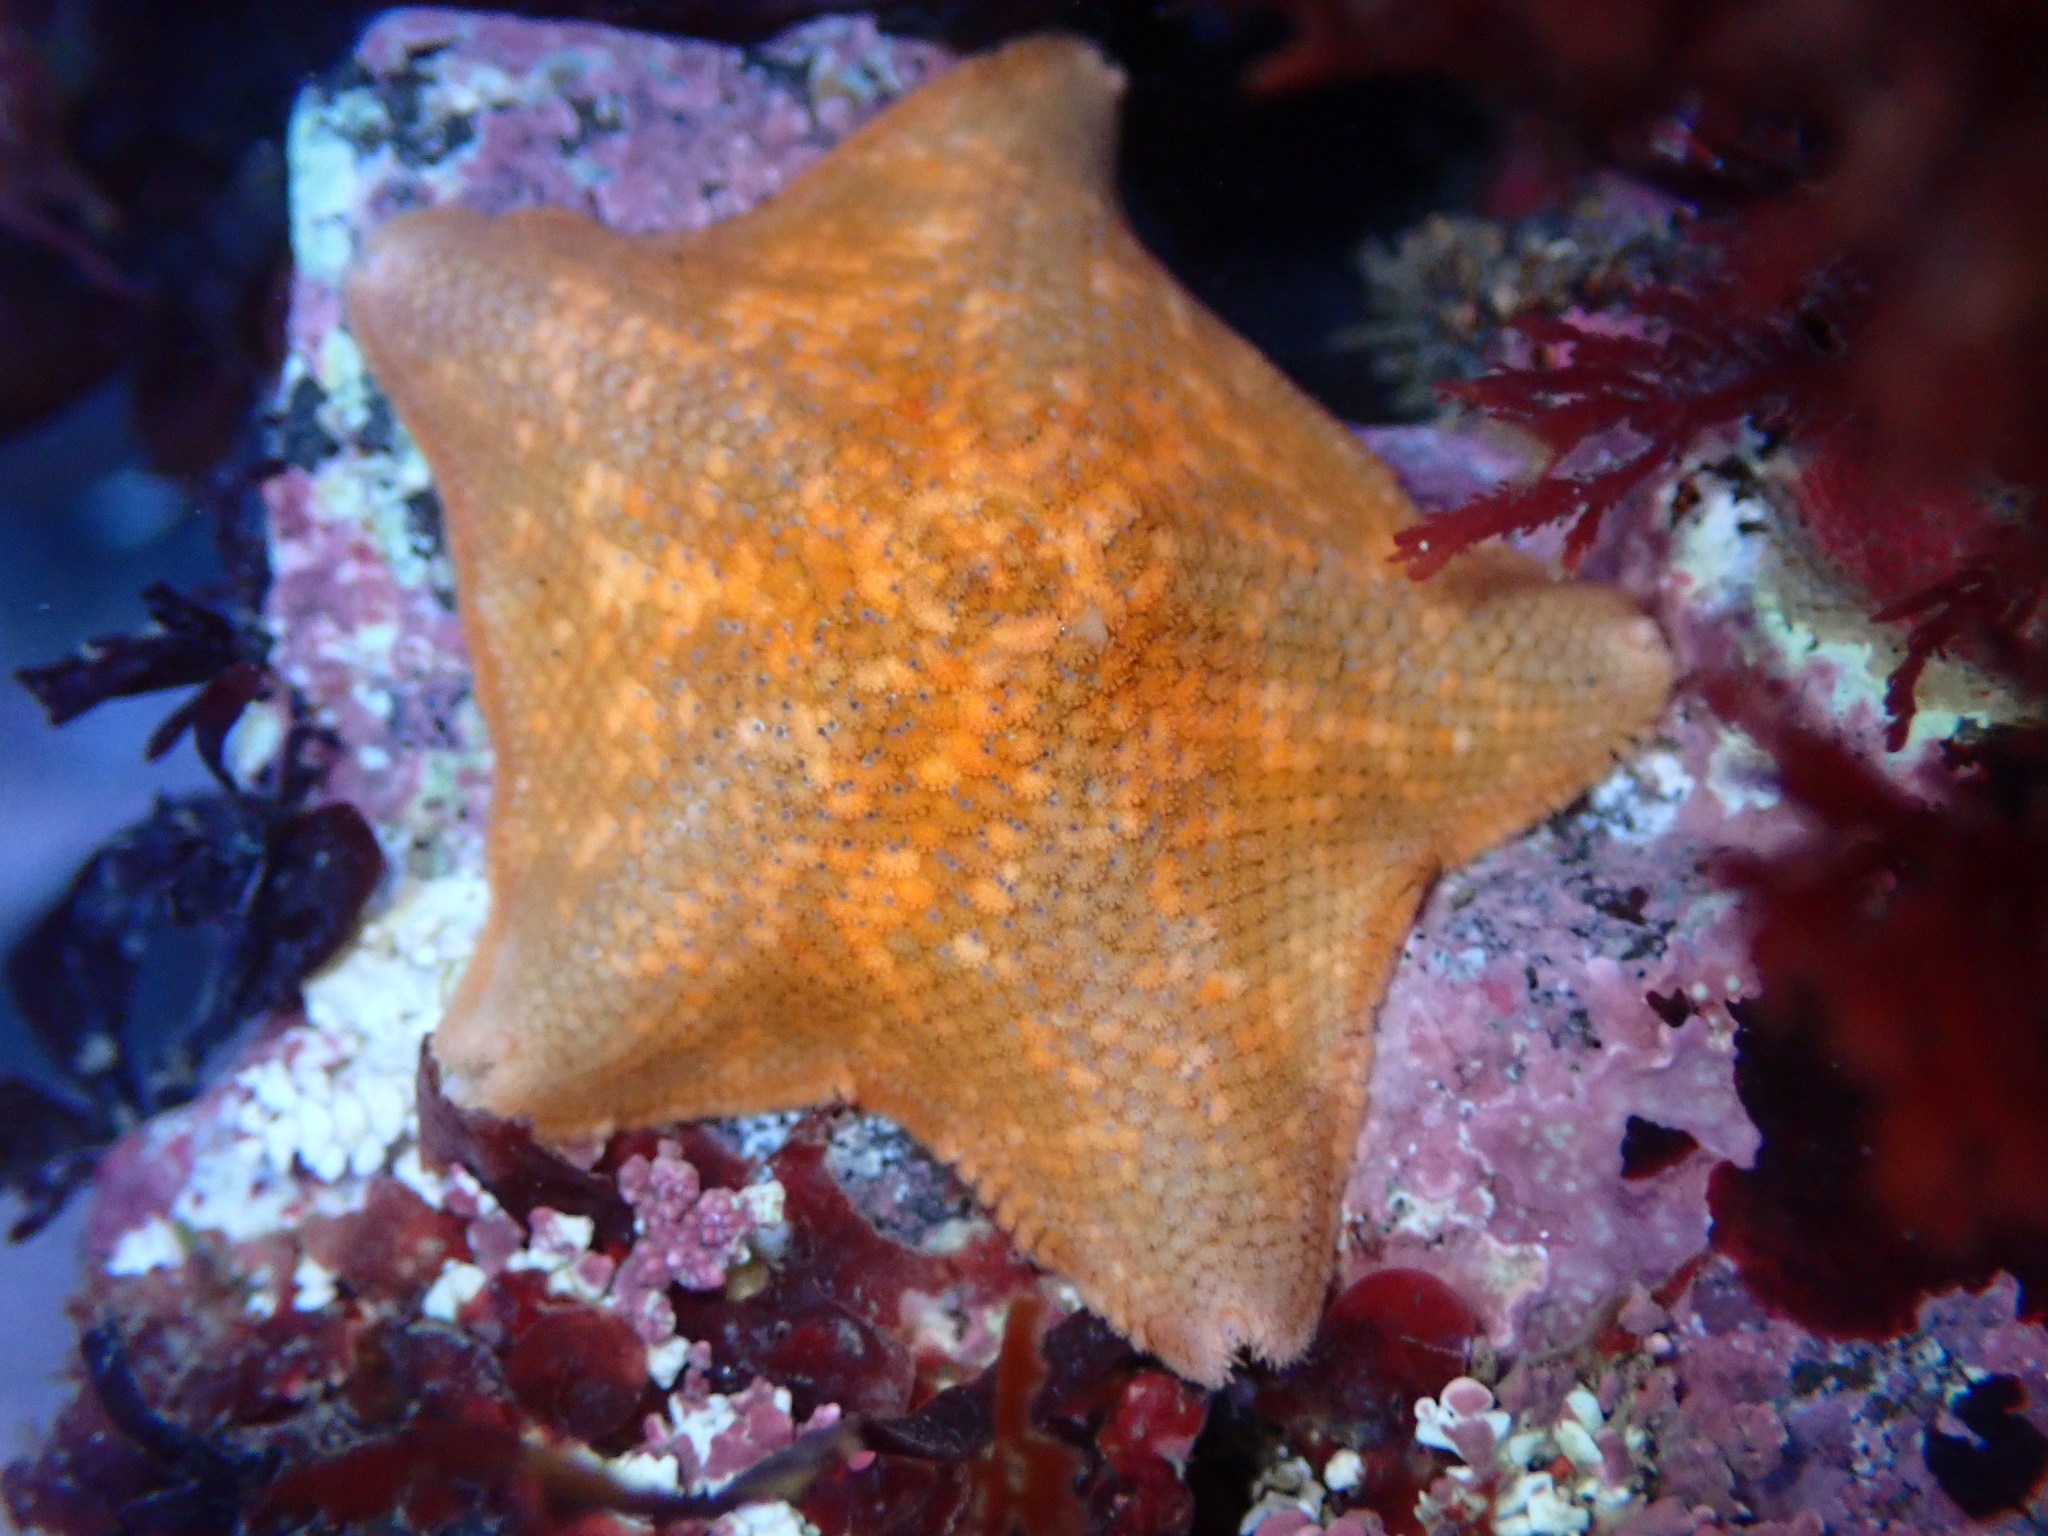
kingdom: Animalia
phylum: Echinodermata
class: Asteroidea
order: Valvatida
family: Asterinidae
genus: Patiria
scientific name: Patiria miniata
